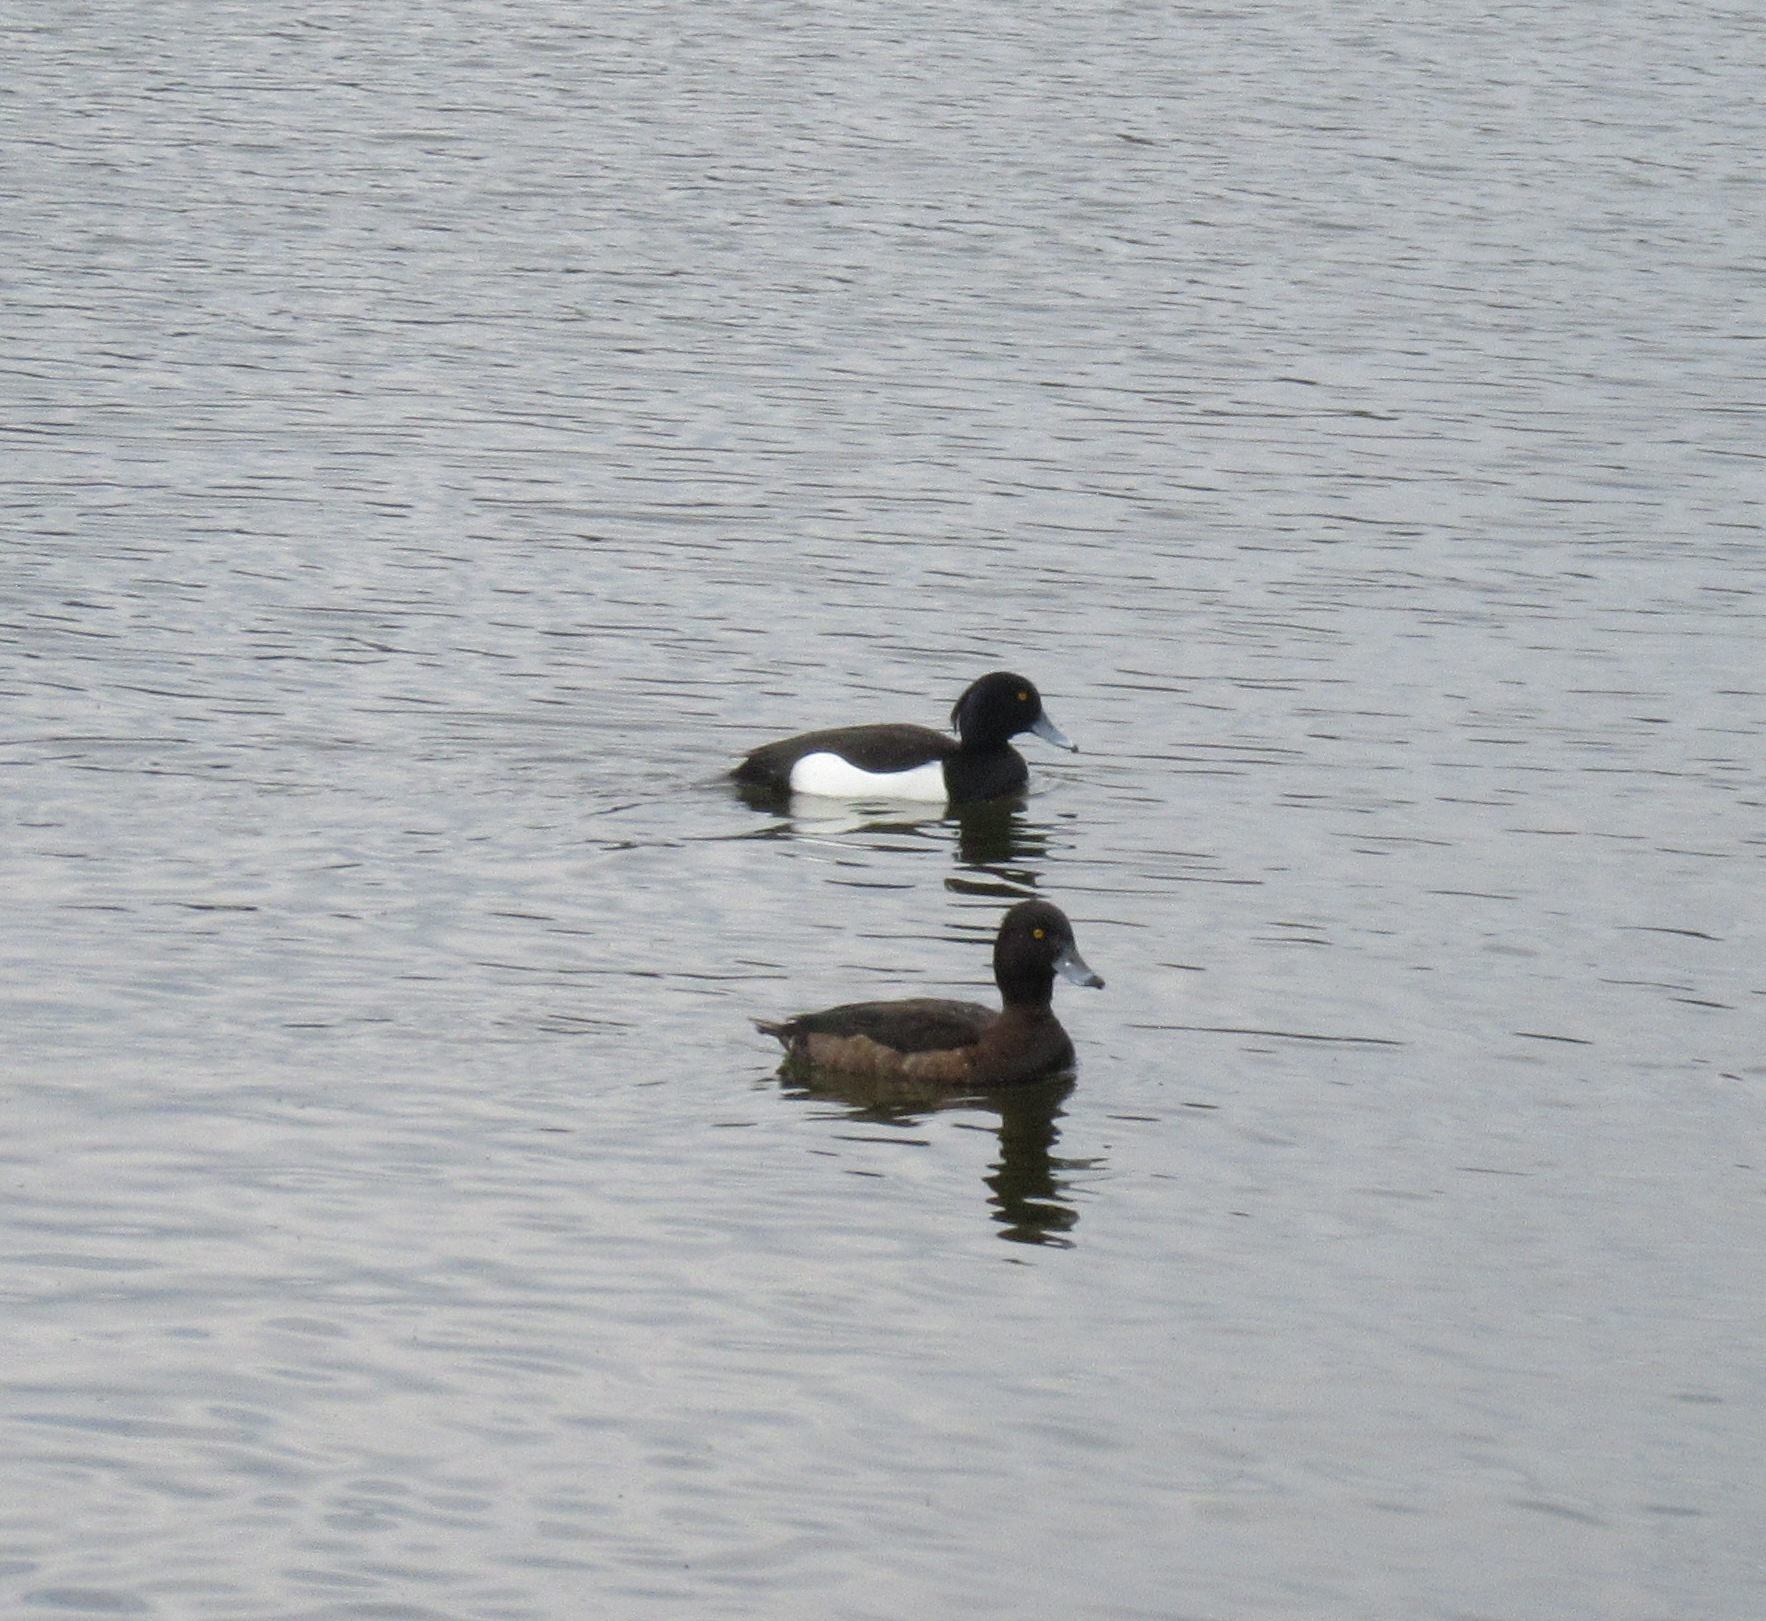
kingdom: Animalia
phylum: Chordata
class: Aves
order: Anseriformes
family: Anatidae
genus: Aythya
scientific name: Aythya fuligula
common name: Tufted duck
